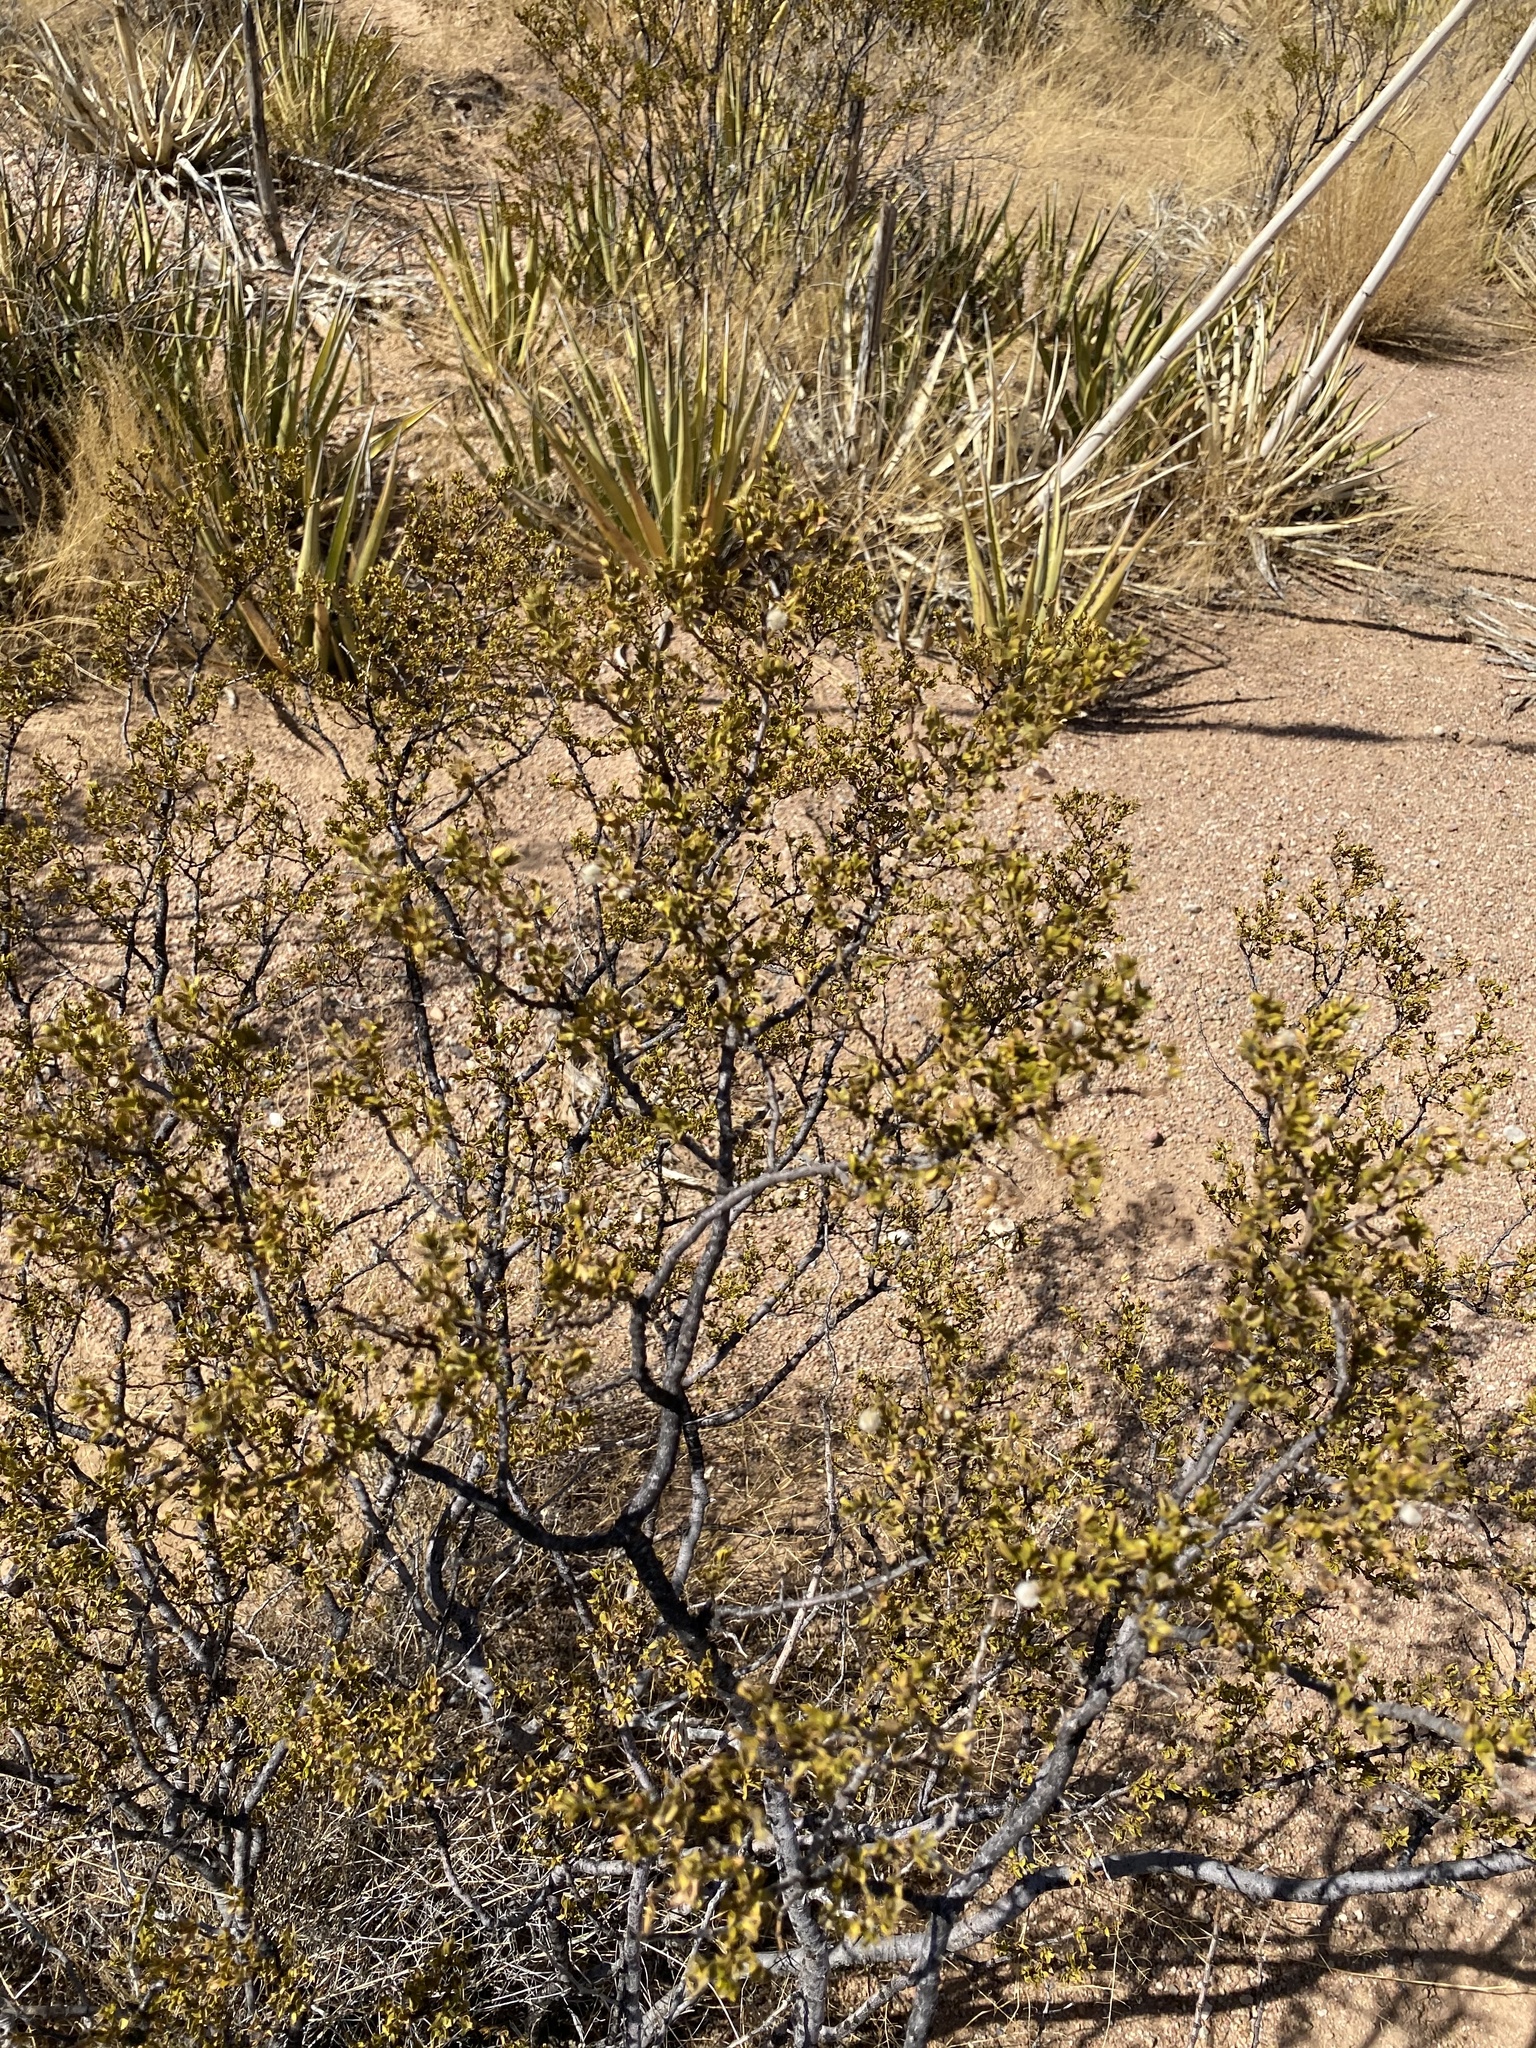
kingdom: Plantae
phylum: Tracheophyta
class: Magnoliopsida
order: Zygophyllales
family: Zygophyllaceae
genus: Larrea
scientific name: Larrea tridentata
